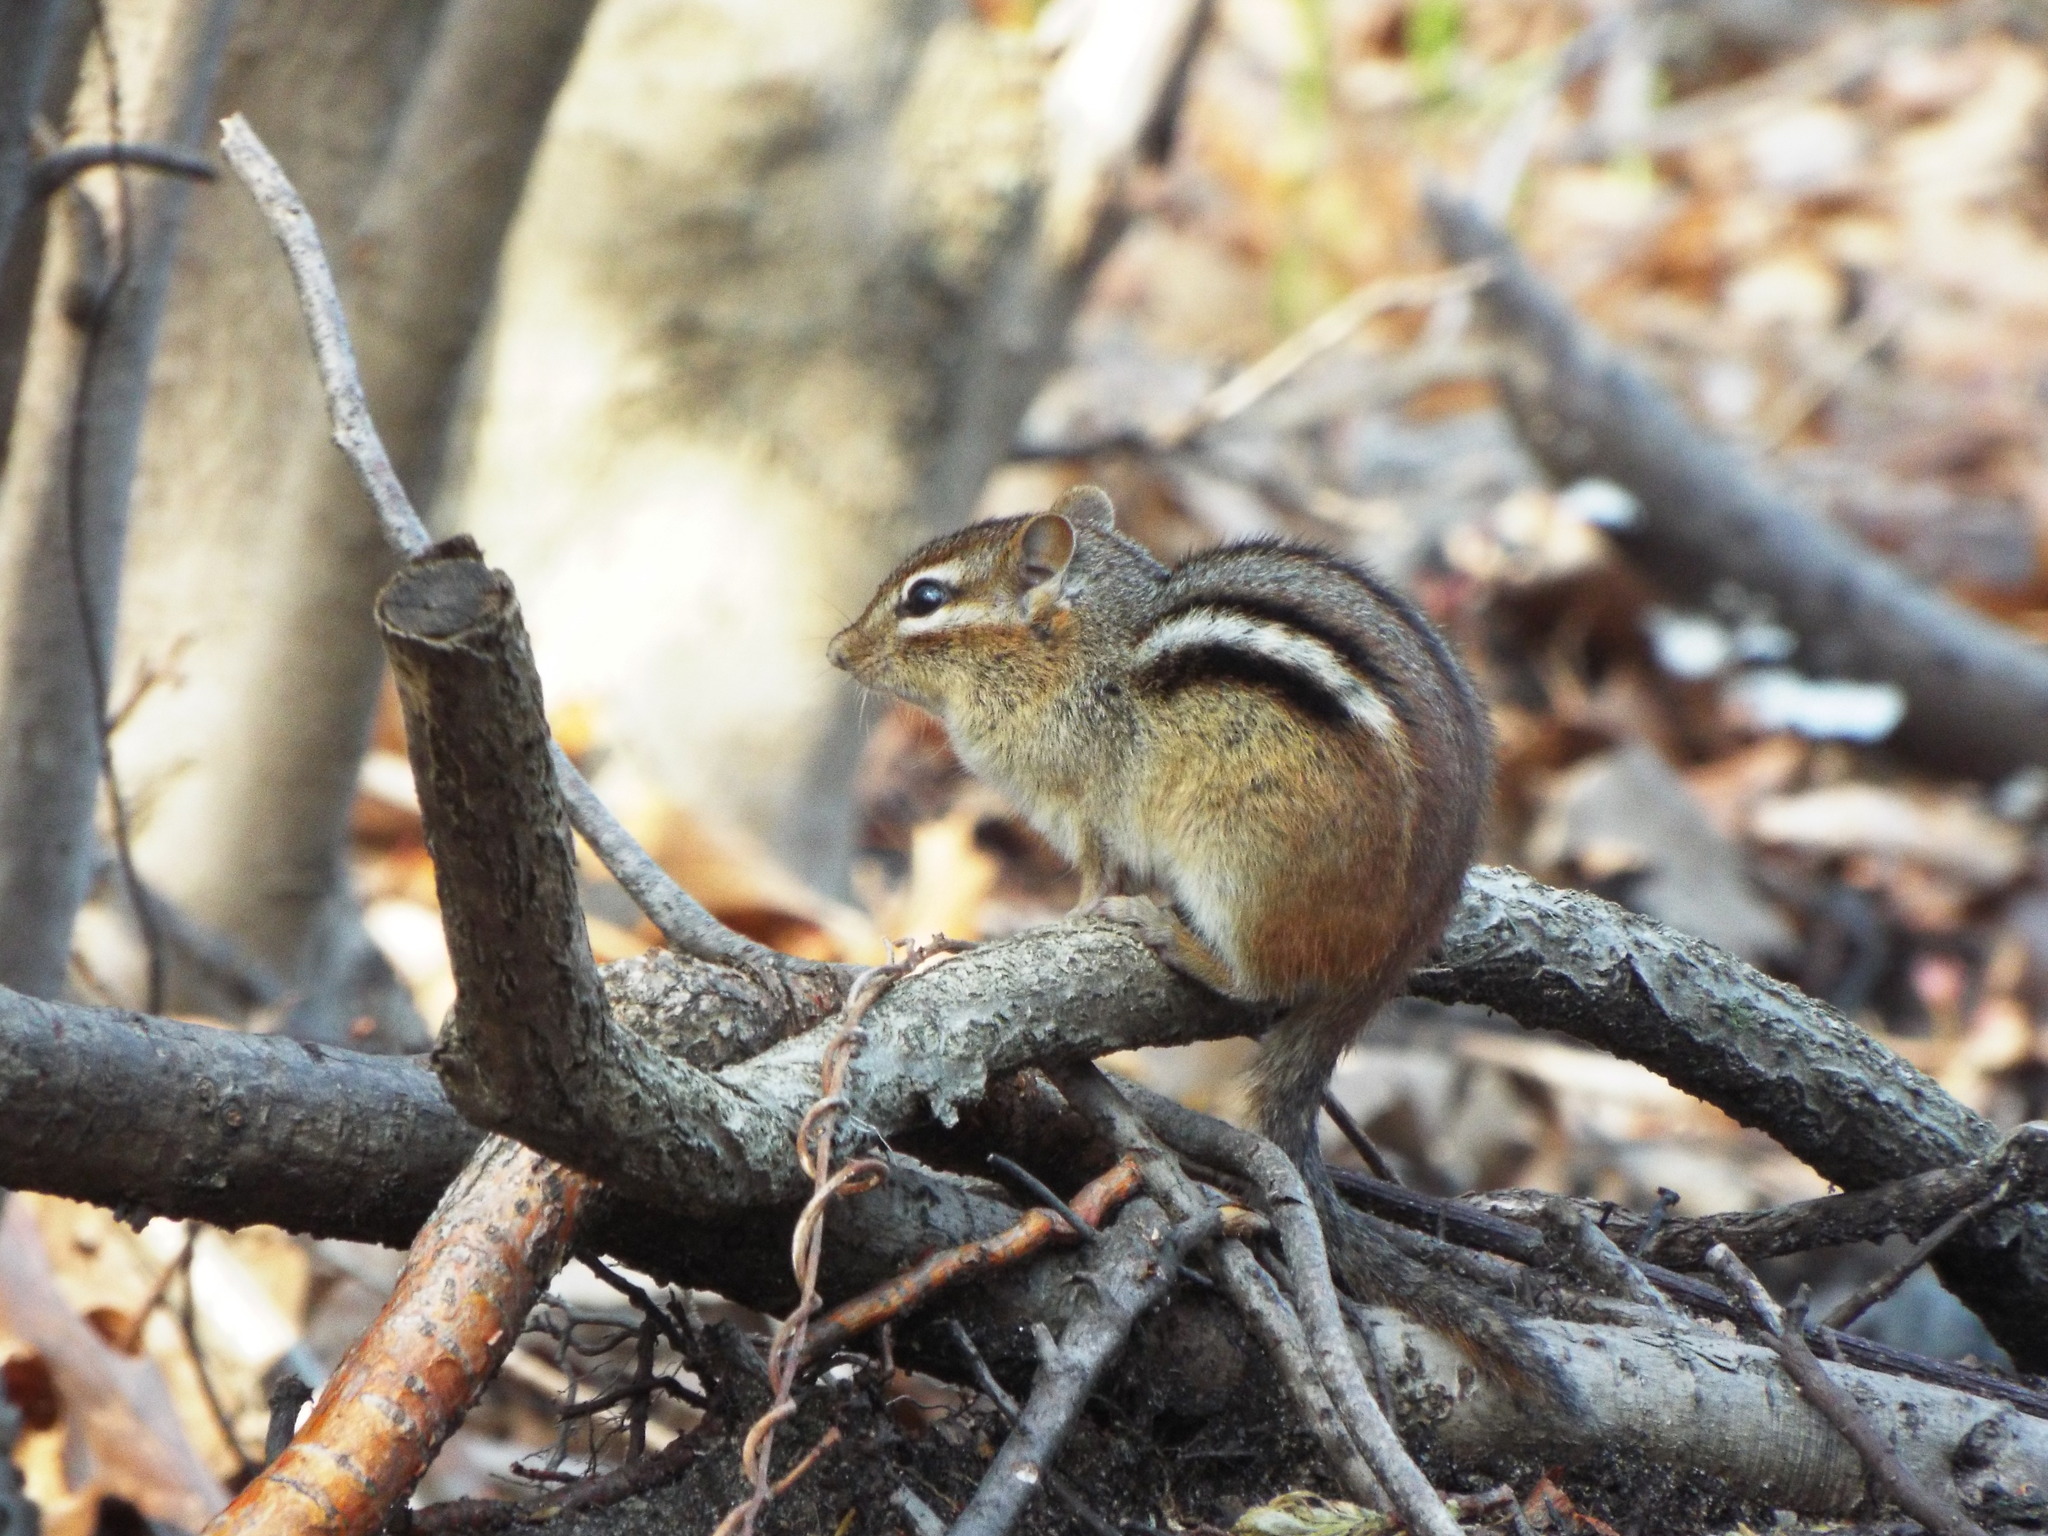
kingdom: Animalia
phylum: Chordata
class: Mammalia
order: Rodentia
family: Sciuridae
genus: Tamias
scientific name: Tamias striatus
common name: Eastern chipmunk
